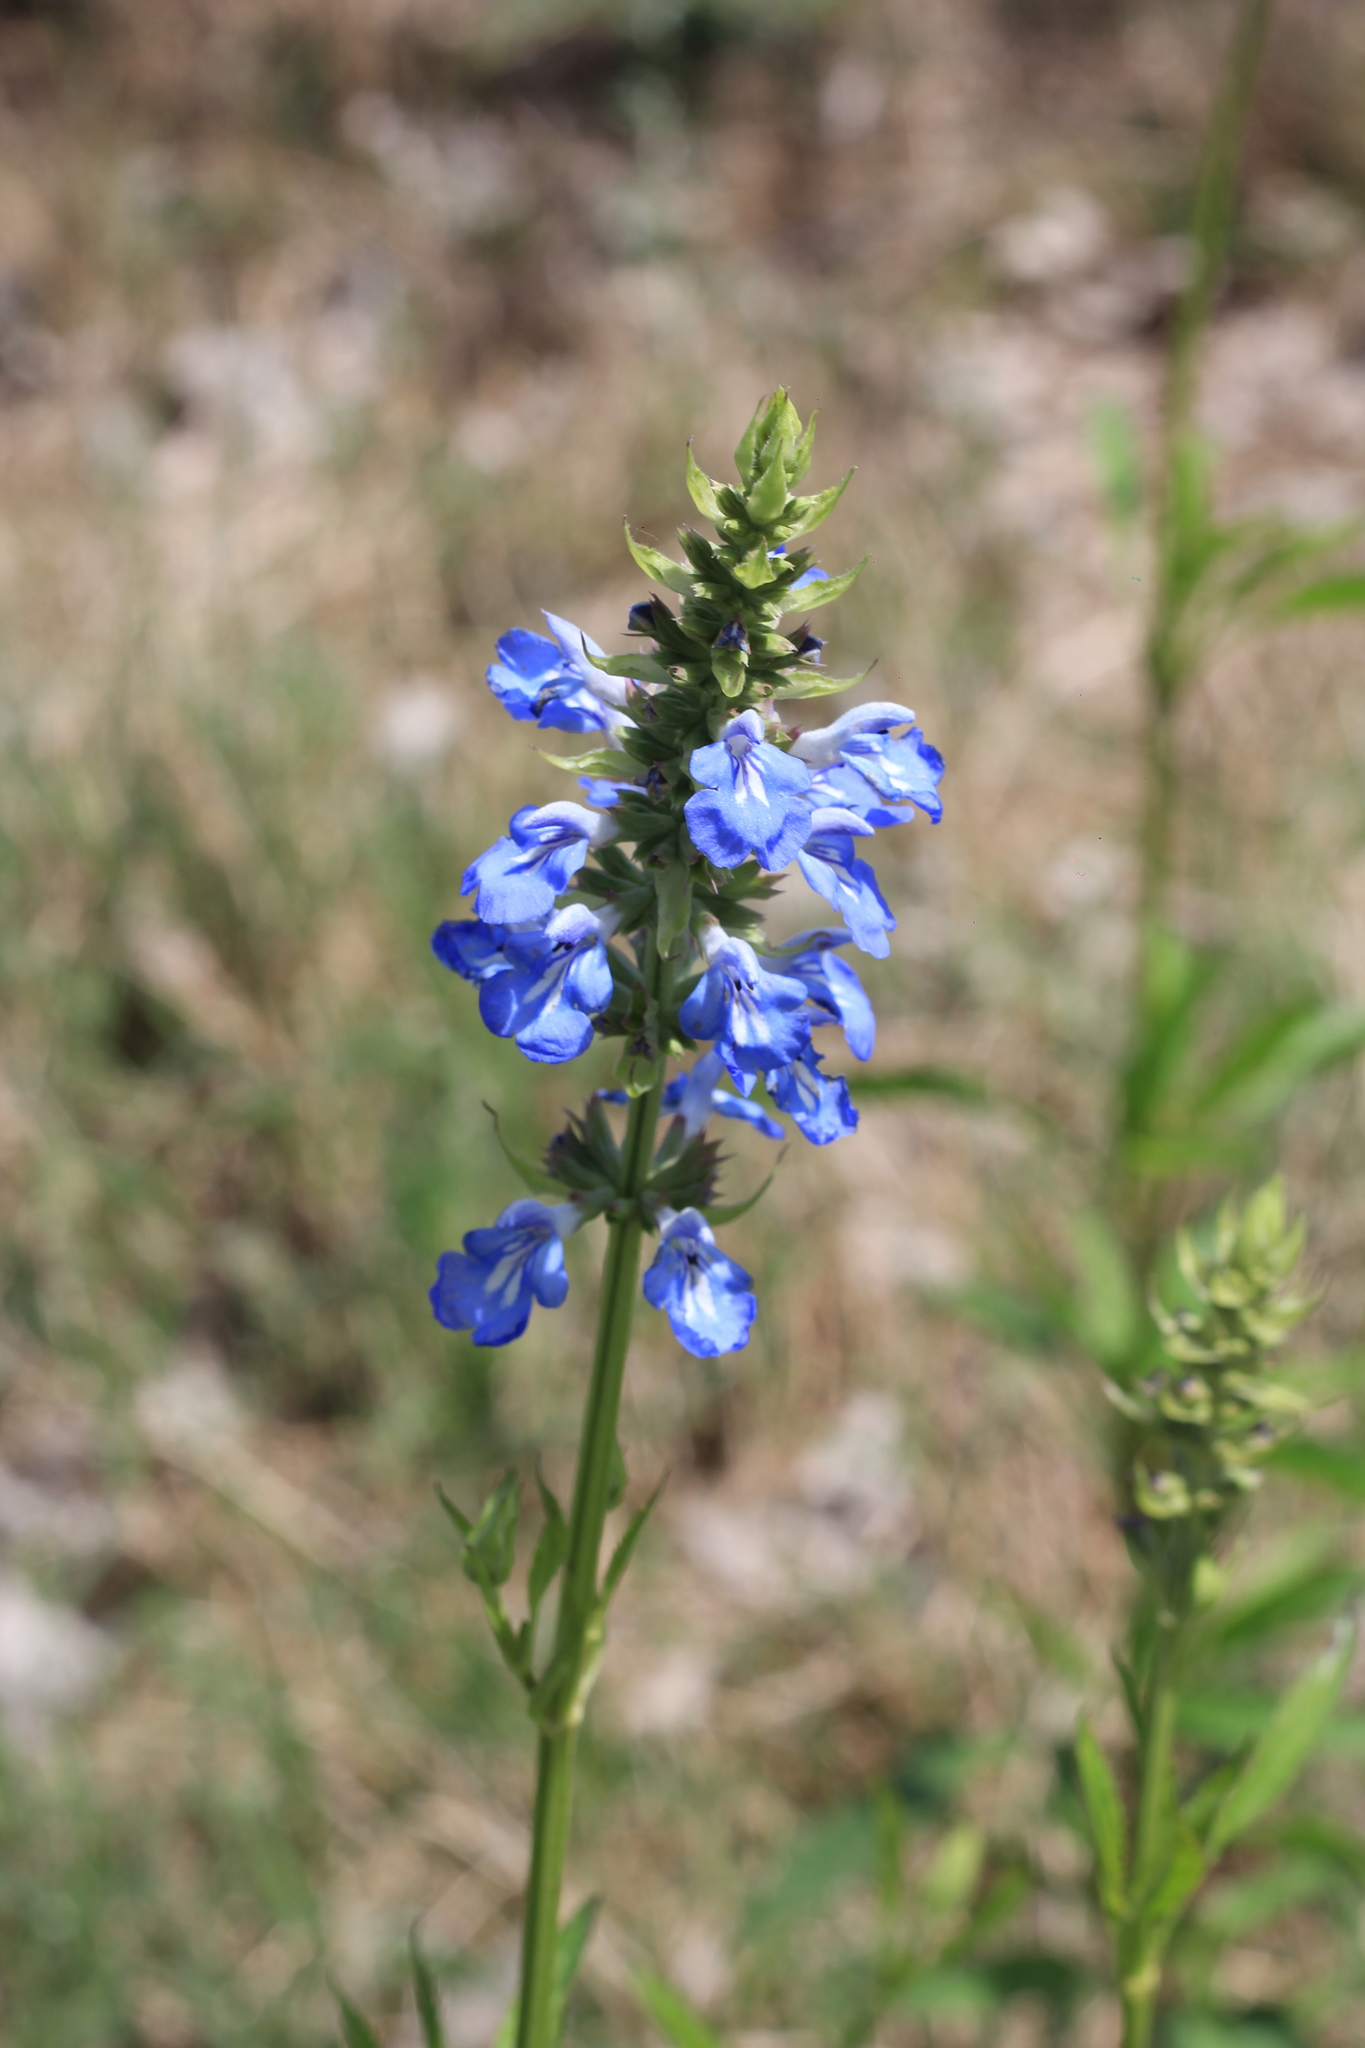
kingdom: Plantae
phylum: Tracheophyta
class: Magnoliopsida
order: Lamiales
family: Lamiaceae
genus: Salvia
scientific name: Salvia uliginosa
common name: Bog sage
